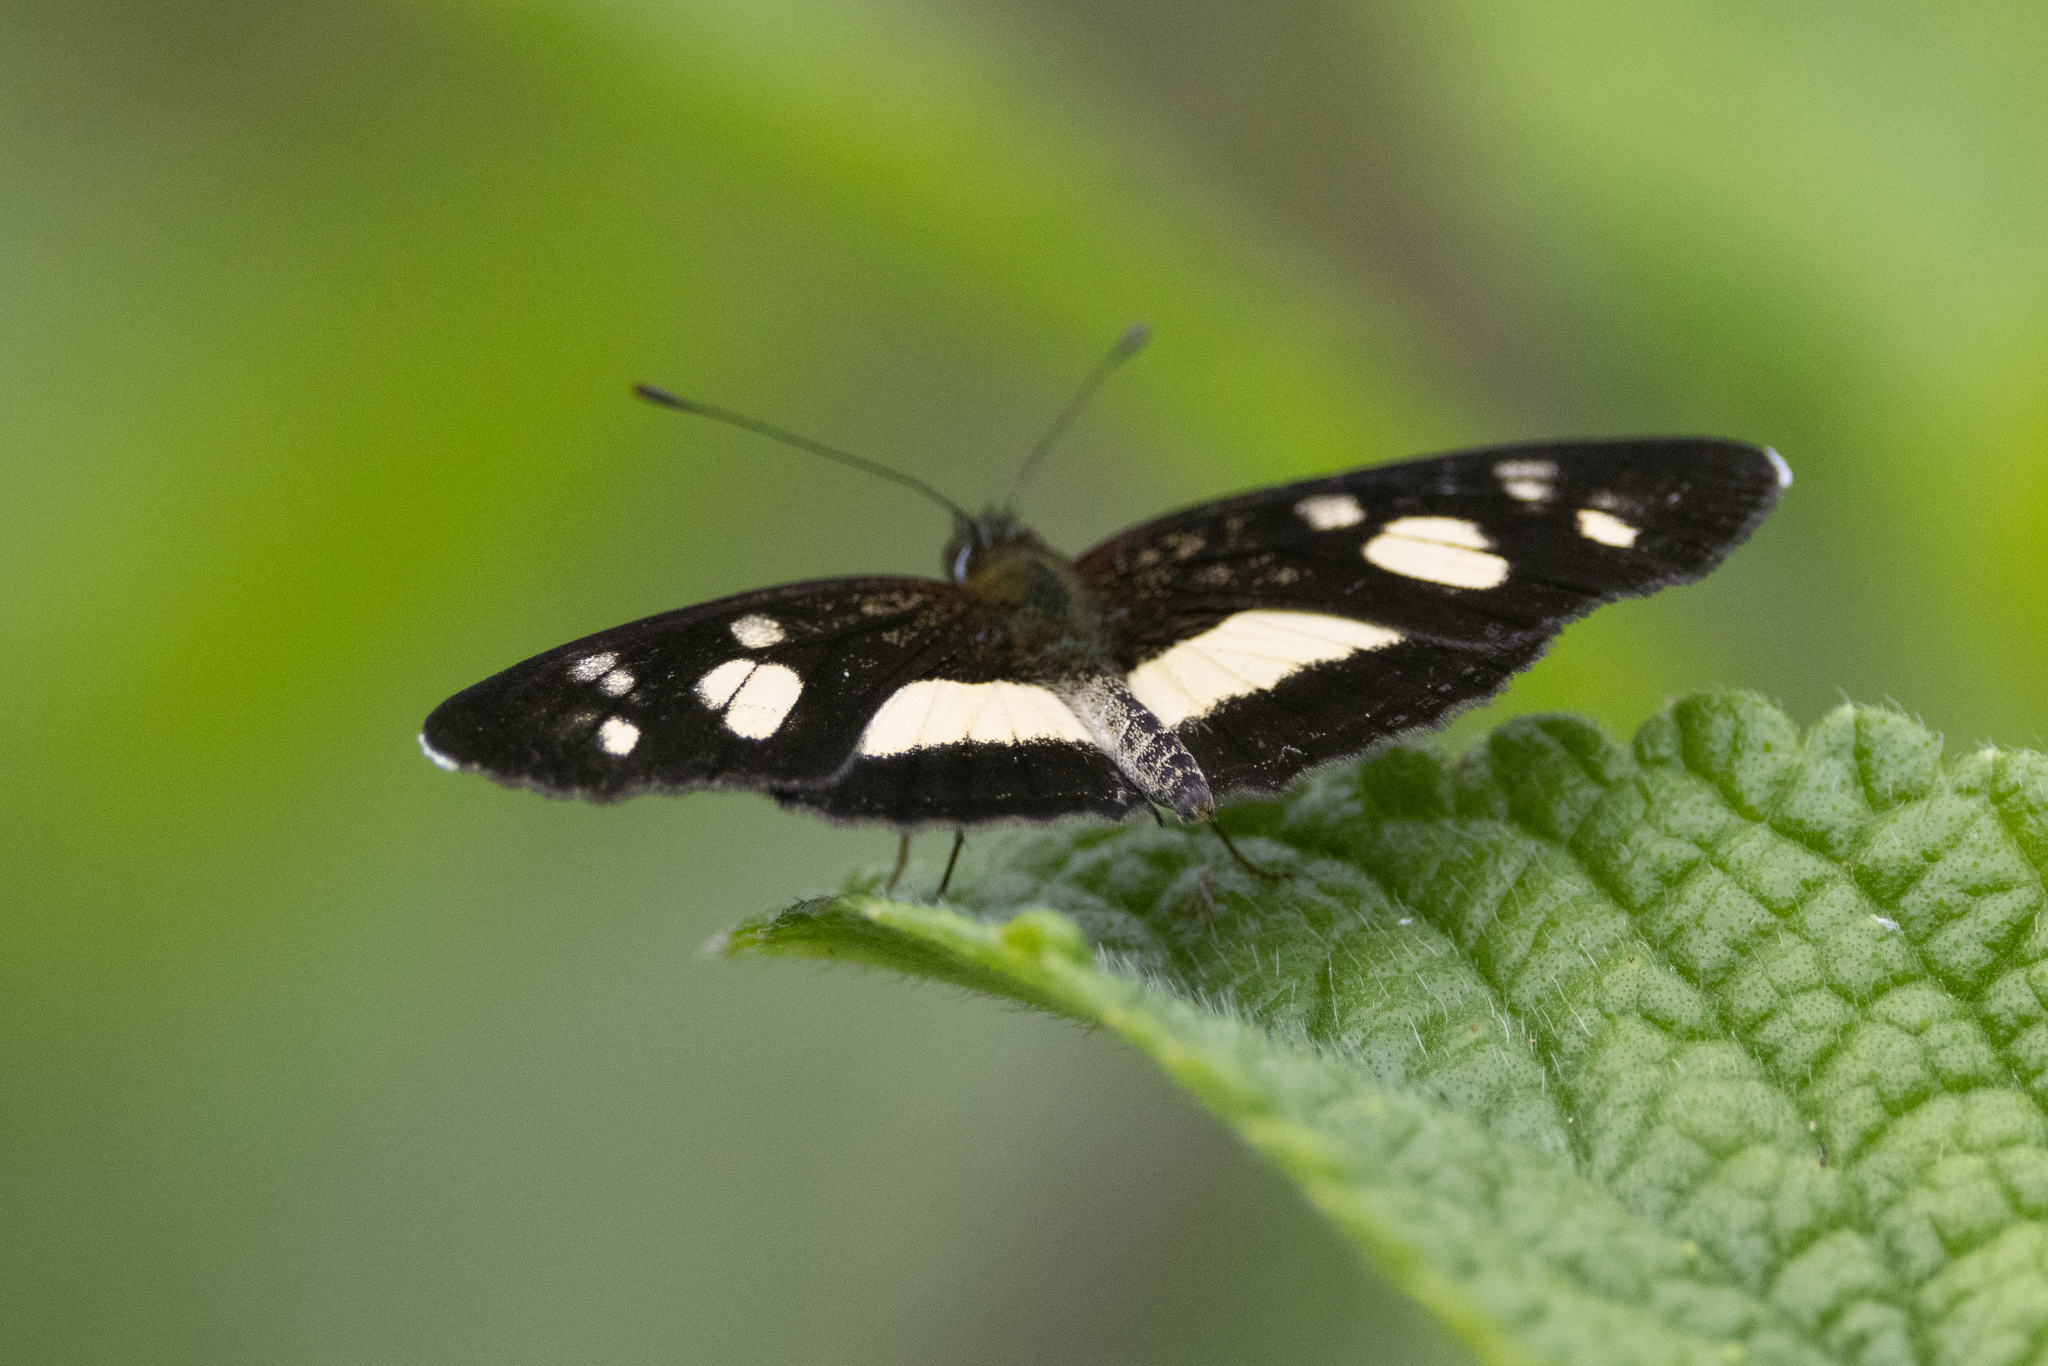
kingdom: Animalia
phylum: Arthropoda
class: Insecta
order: Lepidoptera
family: Nymphalidae
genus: Eresia
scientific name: Eresia clio
